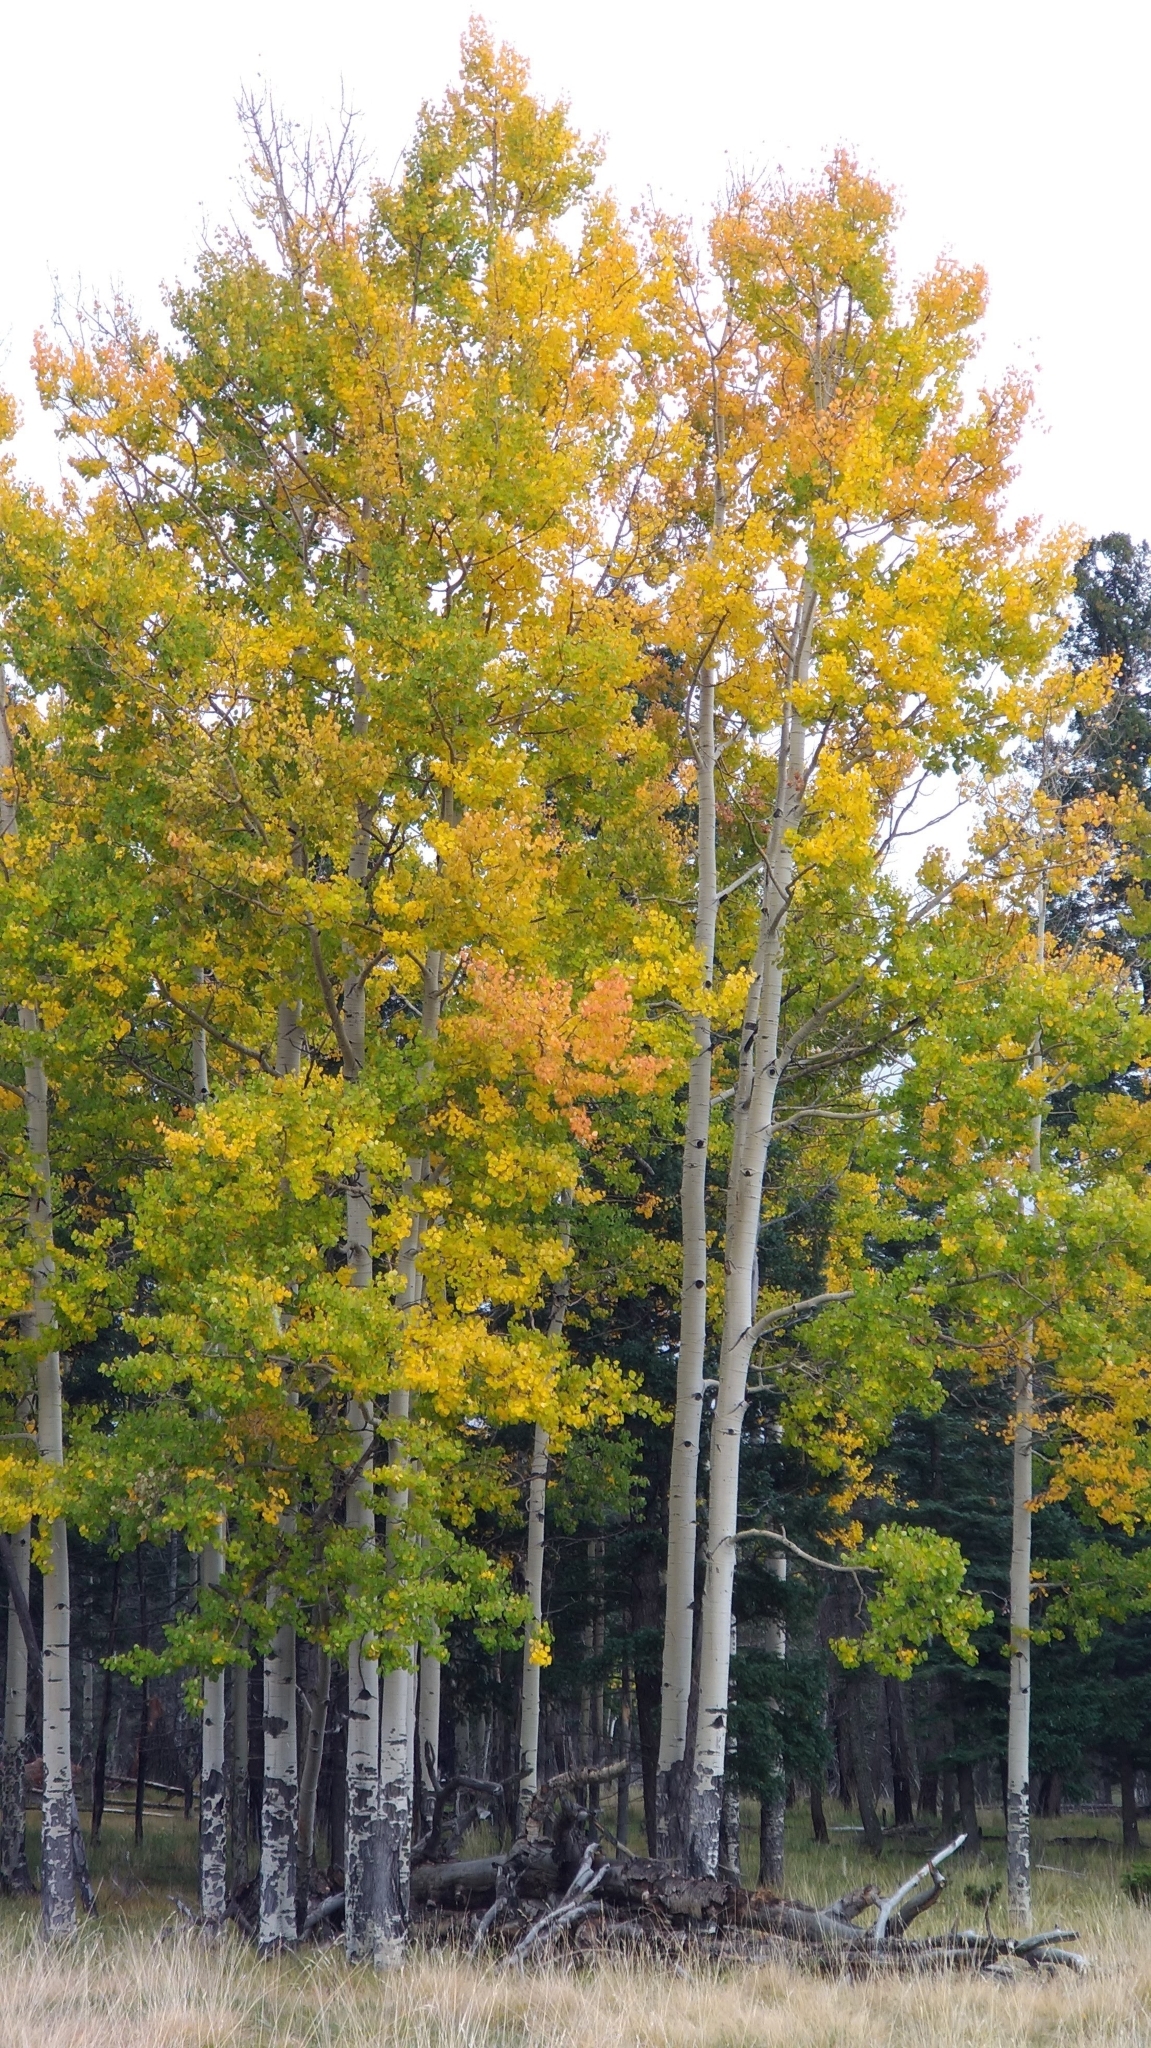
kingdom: Plantae
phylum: Tracheophyta
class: Magnoliopsida
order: Malpighiales
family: Salicaceae
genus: Populus
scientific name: Populus tremuloides
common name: Quaking aspen
